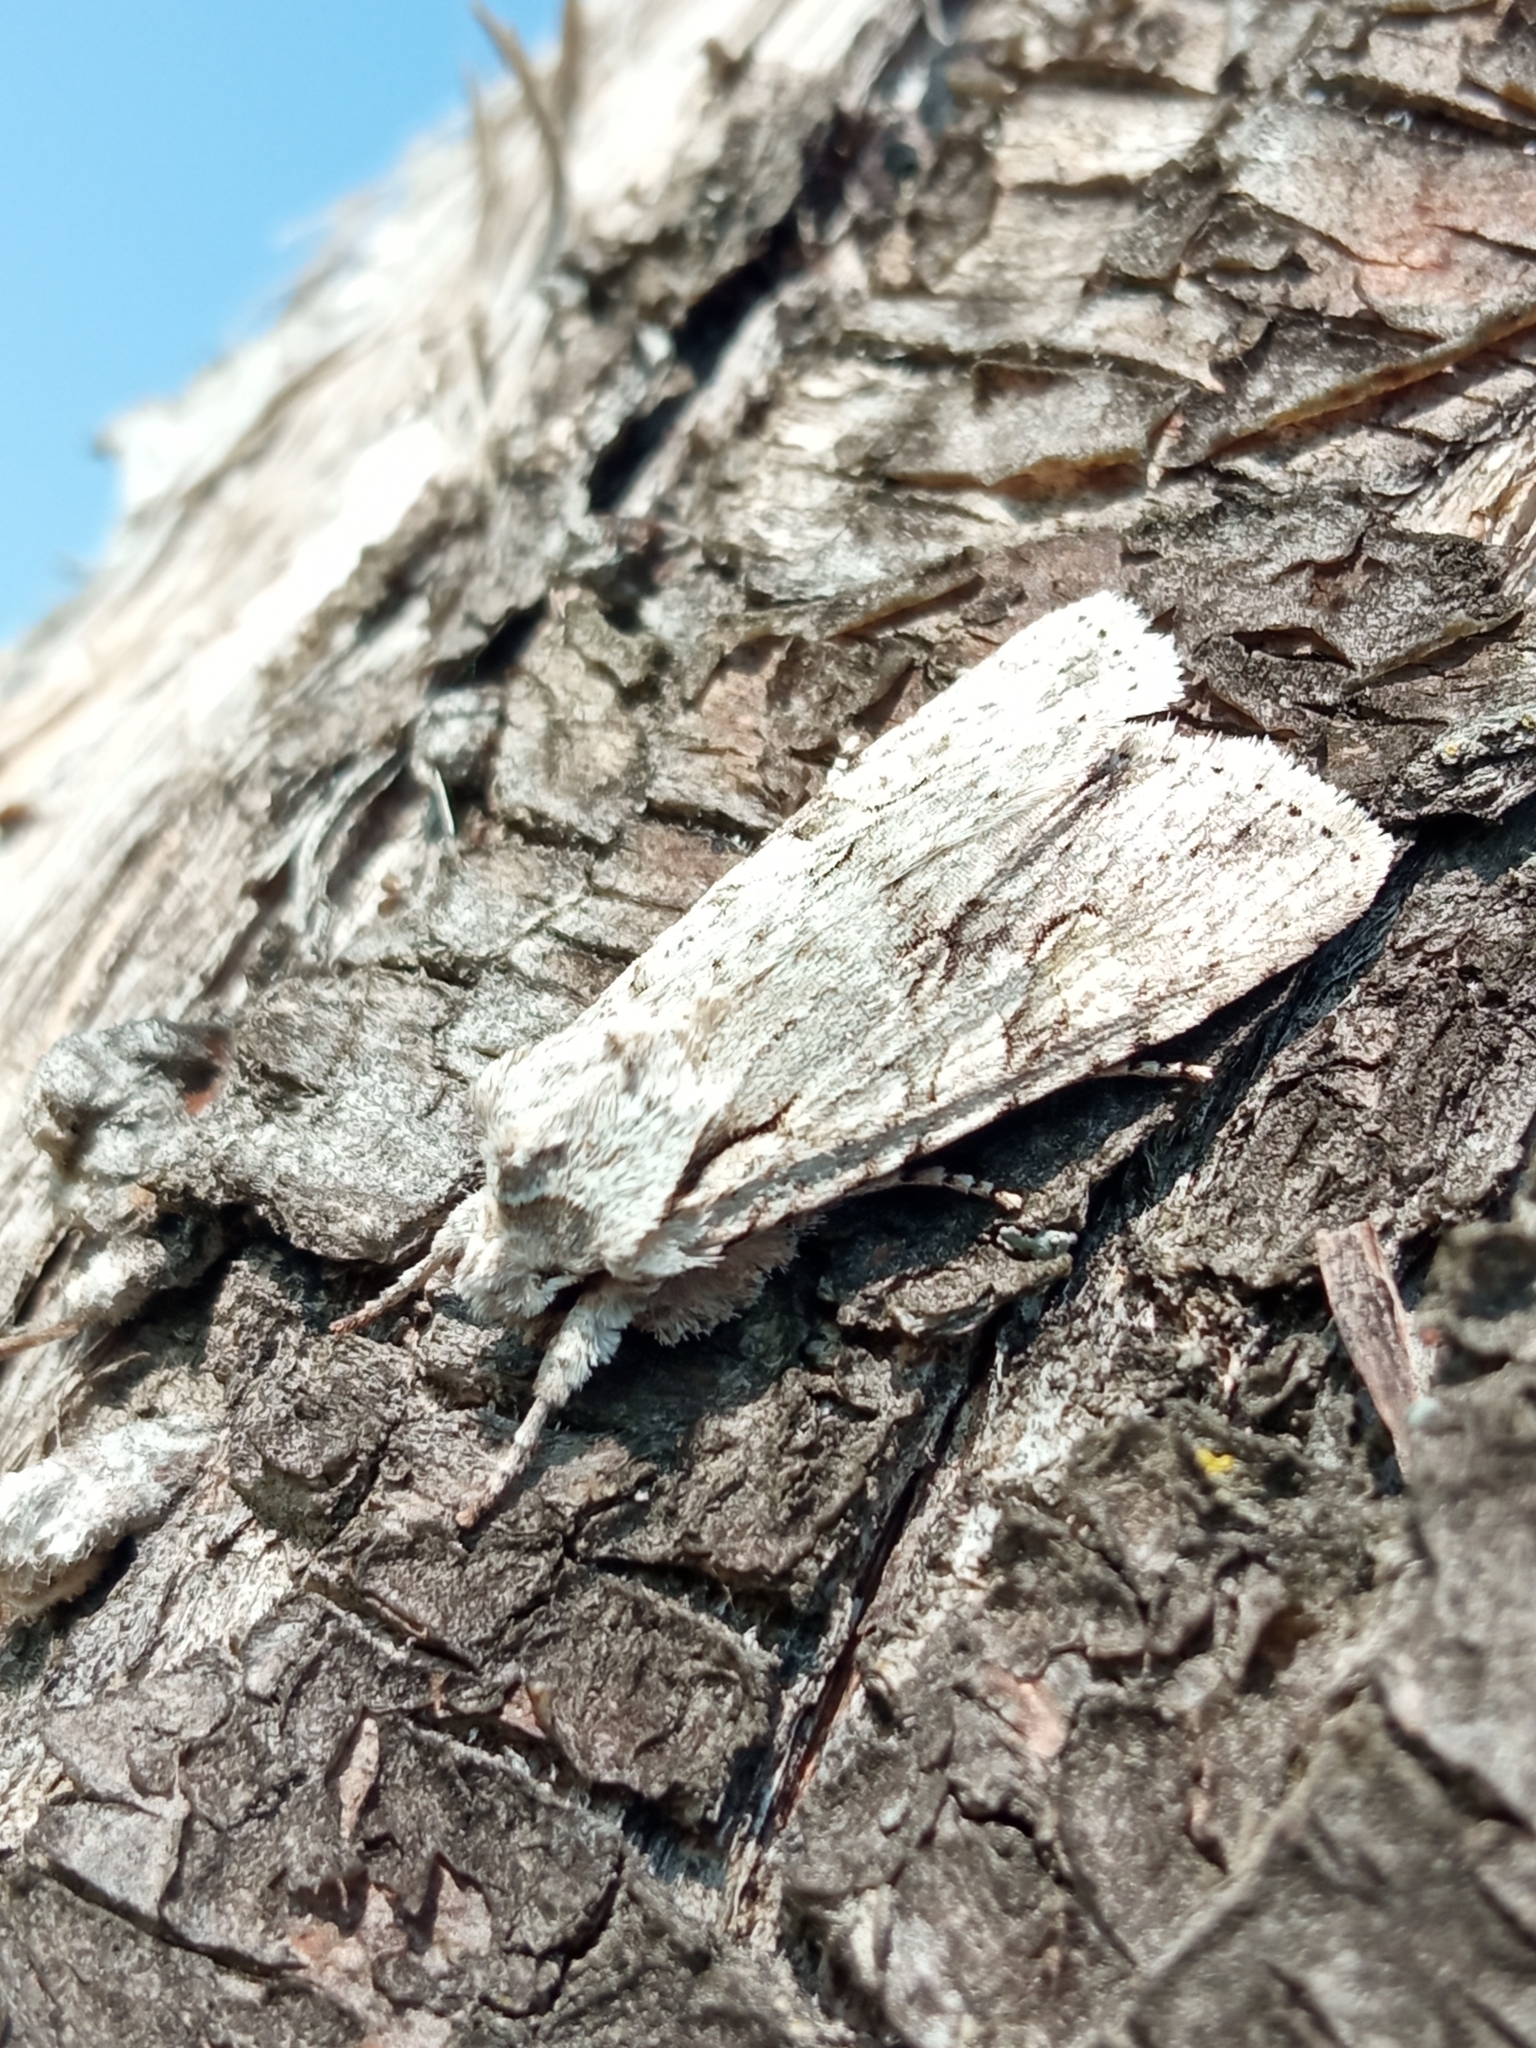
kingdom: Animalia
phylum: Arthropoda
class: Insecta
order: Lepidoptera
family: Noctuidae
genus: Lithophane
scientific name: Lithophane ornitopus
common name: Grey shoulder-knot
